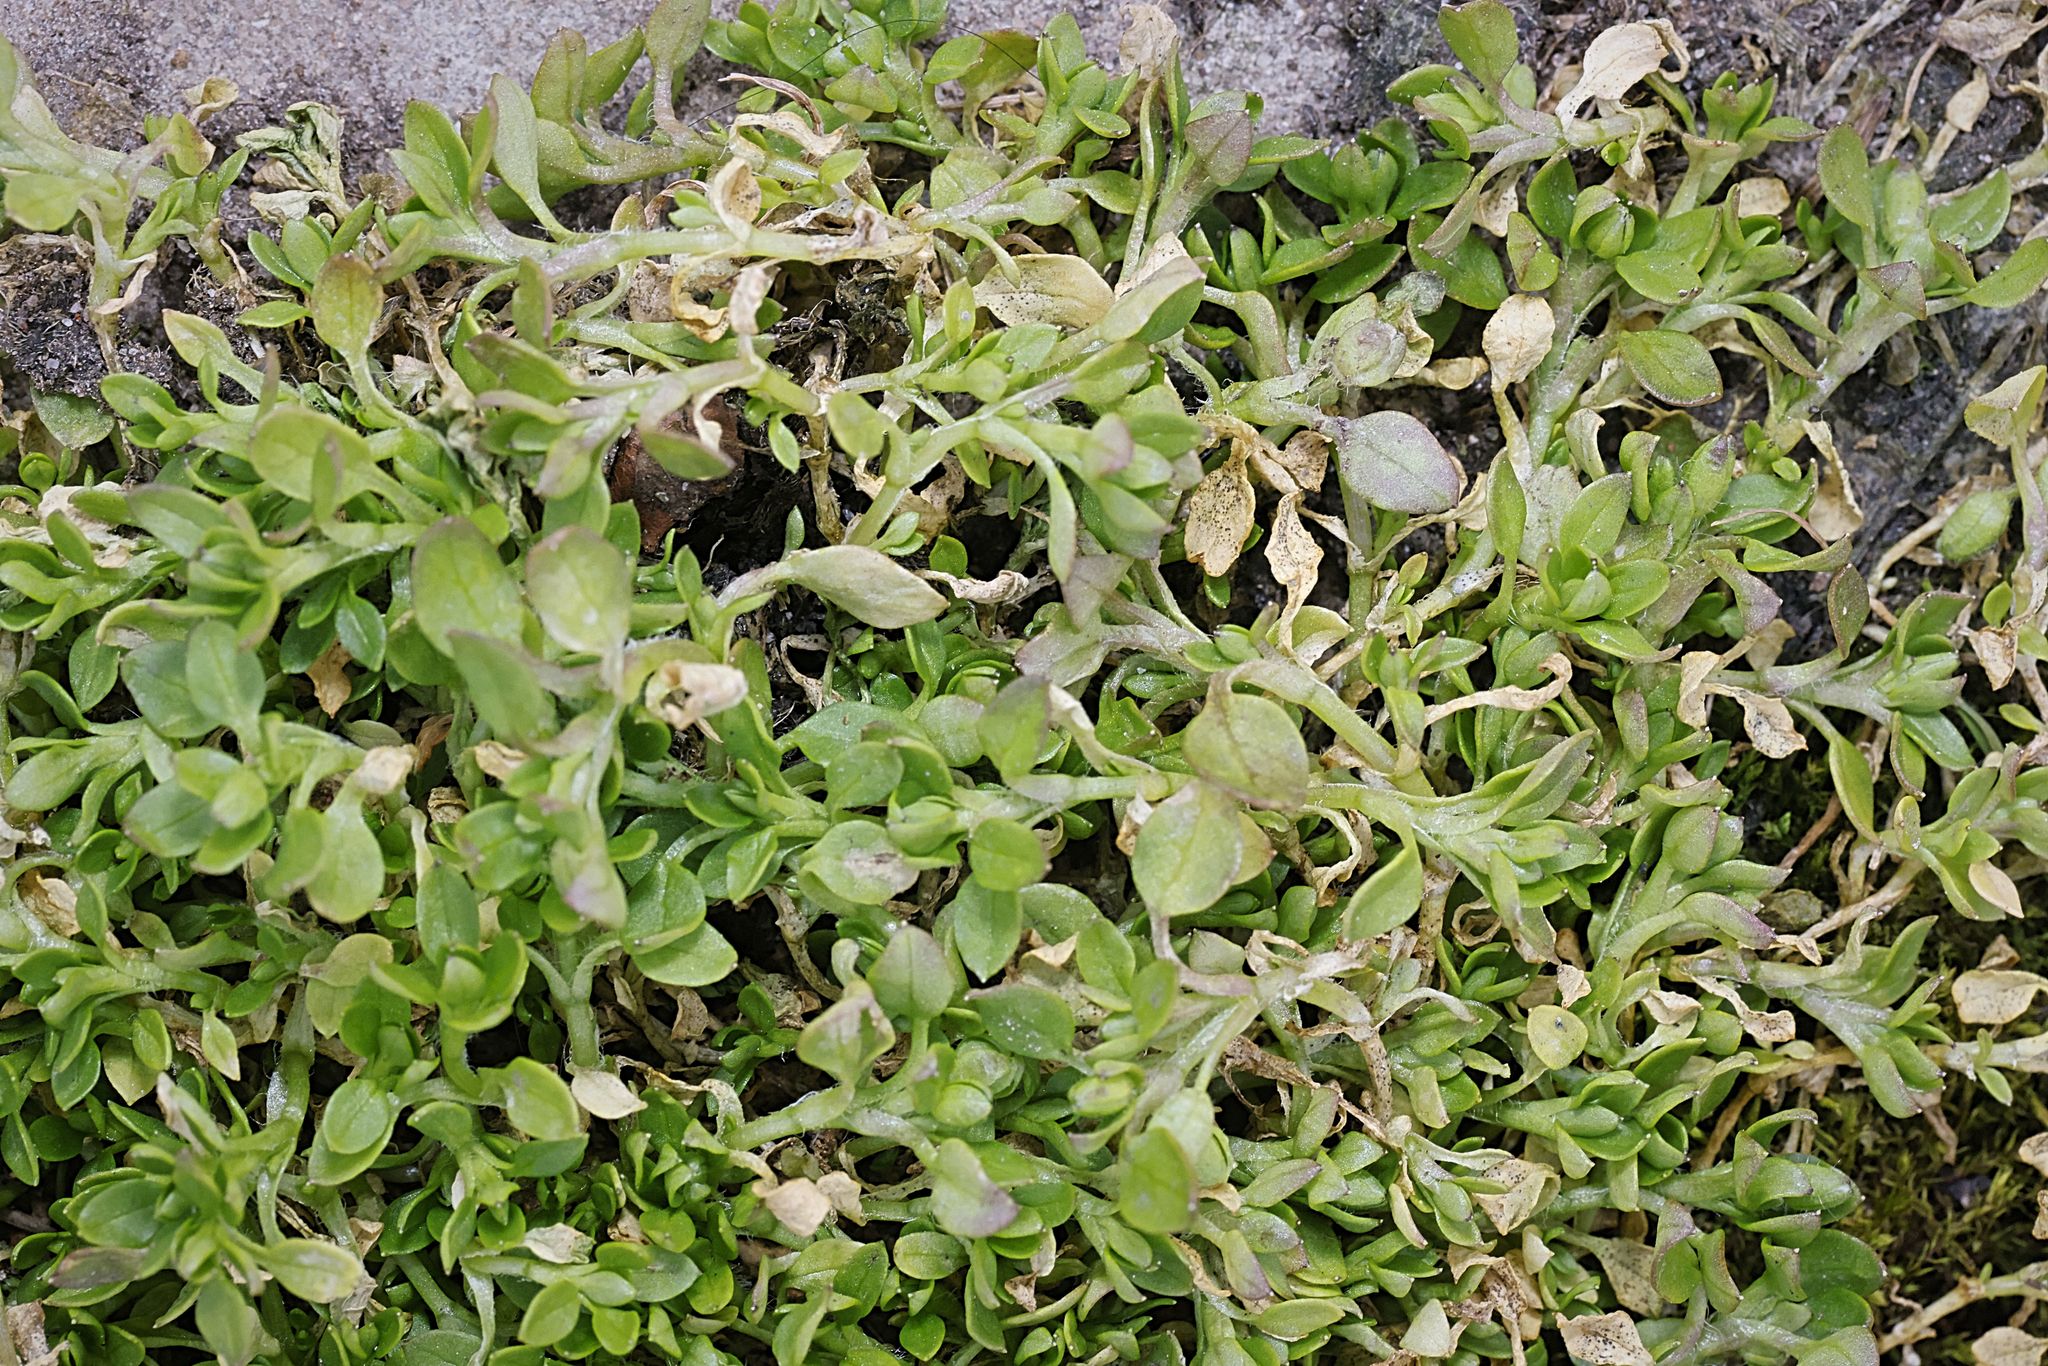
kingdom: Plantae
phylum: Tracheophyta
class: Magnoliopsida
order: Caryophyllales
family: Caryophyllaceae
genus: Stellaria
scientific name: Stellaria media
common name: Common chickweed
